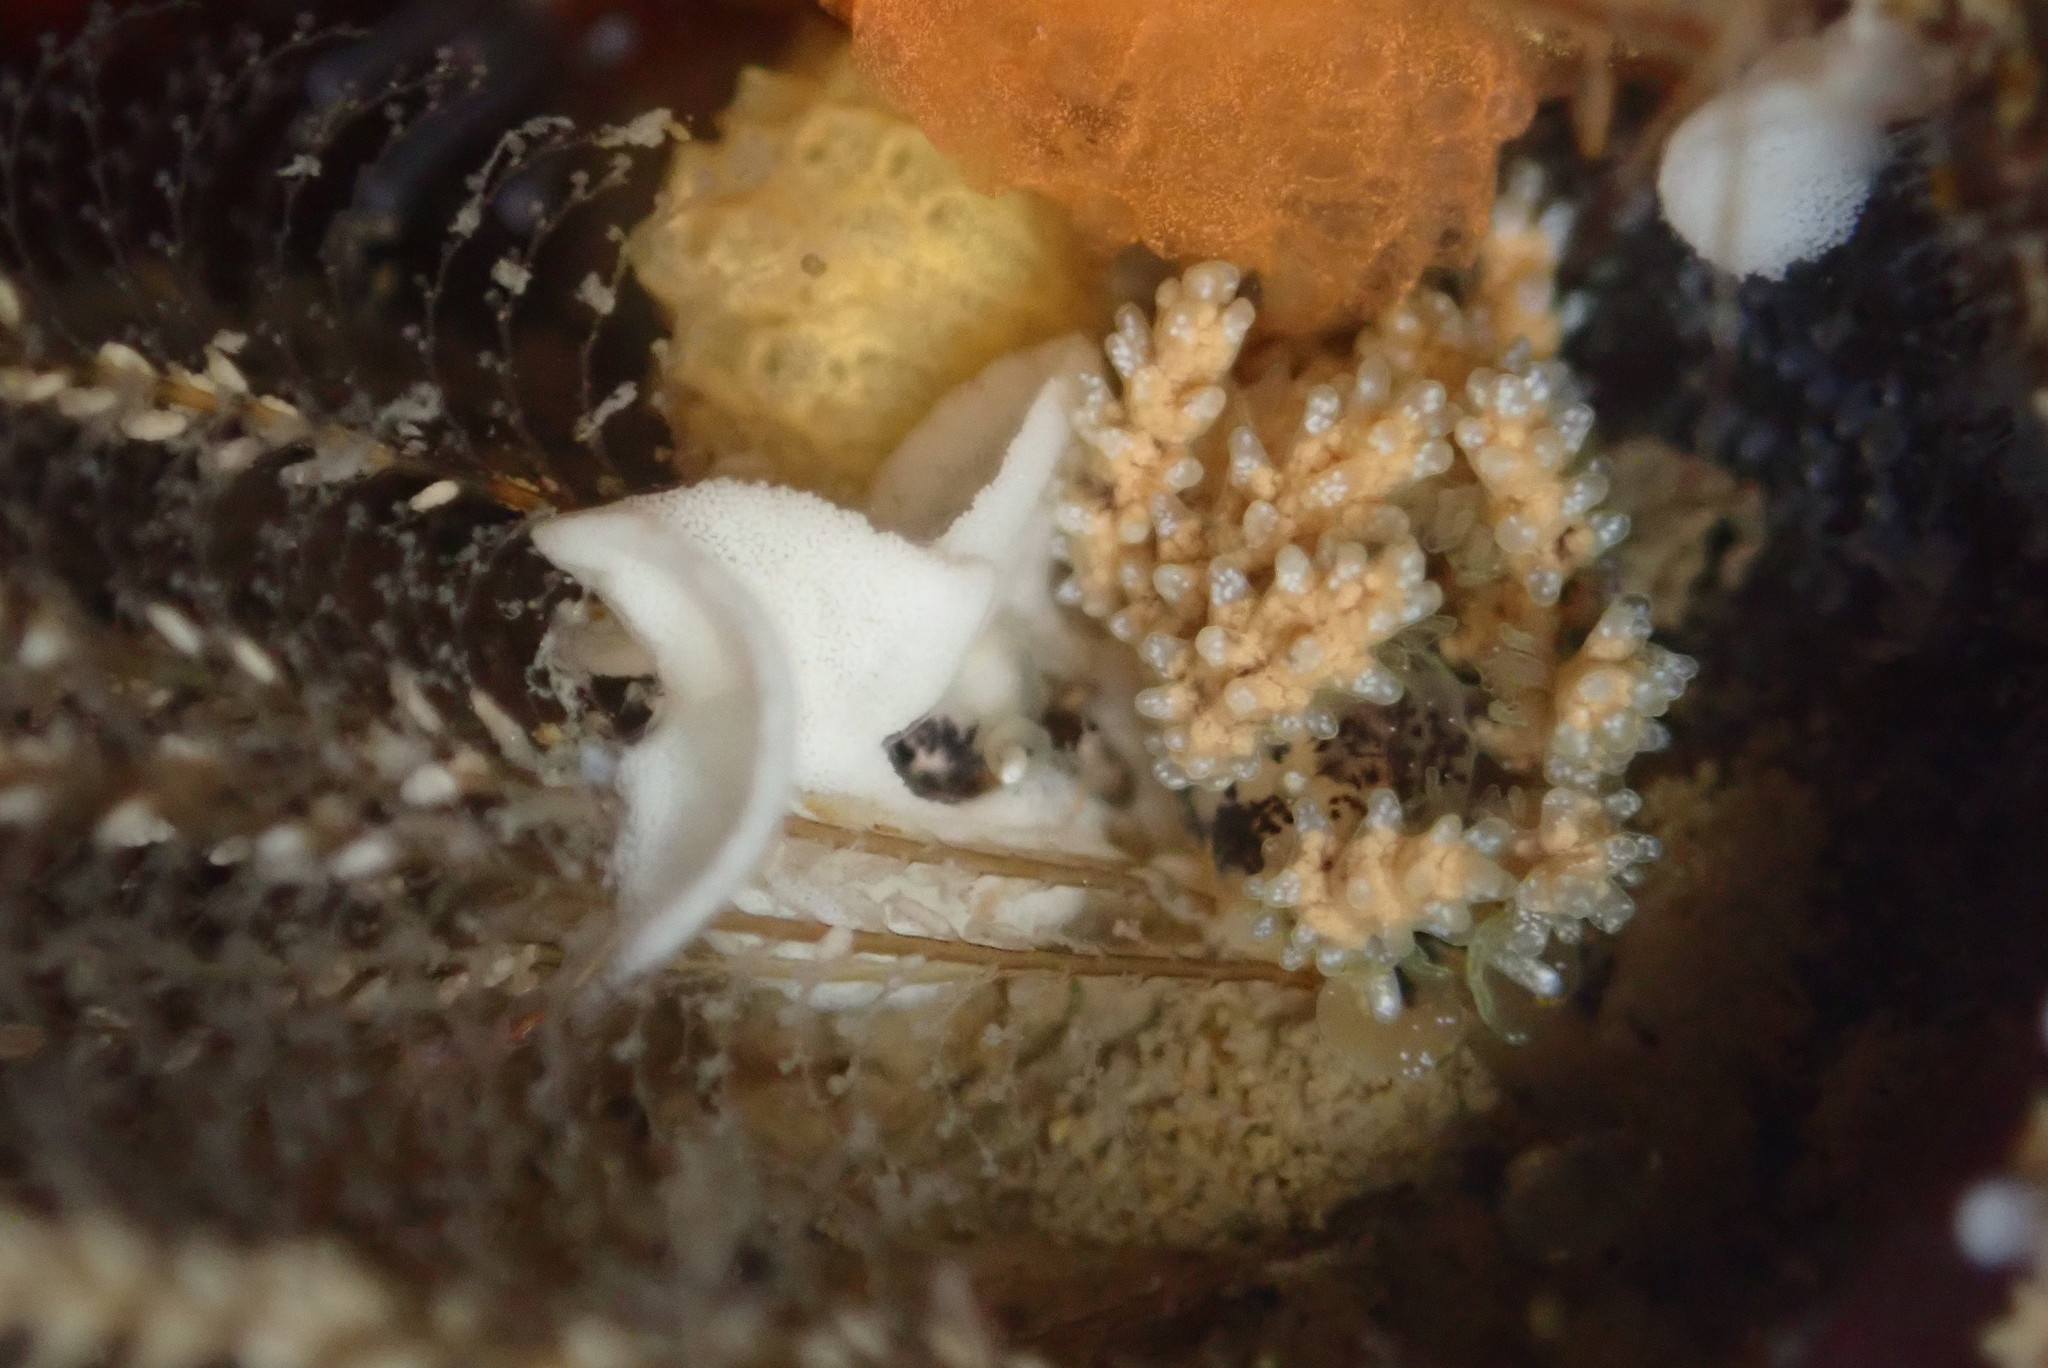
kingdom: Animalia
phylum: Mollusca
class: Gastropoda
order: Nudibranchia
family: Dotidae
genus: Doto
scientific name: Doto kya
